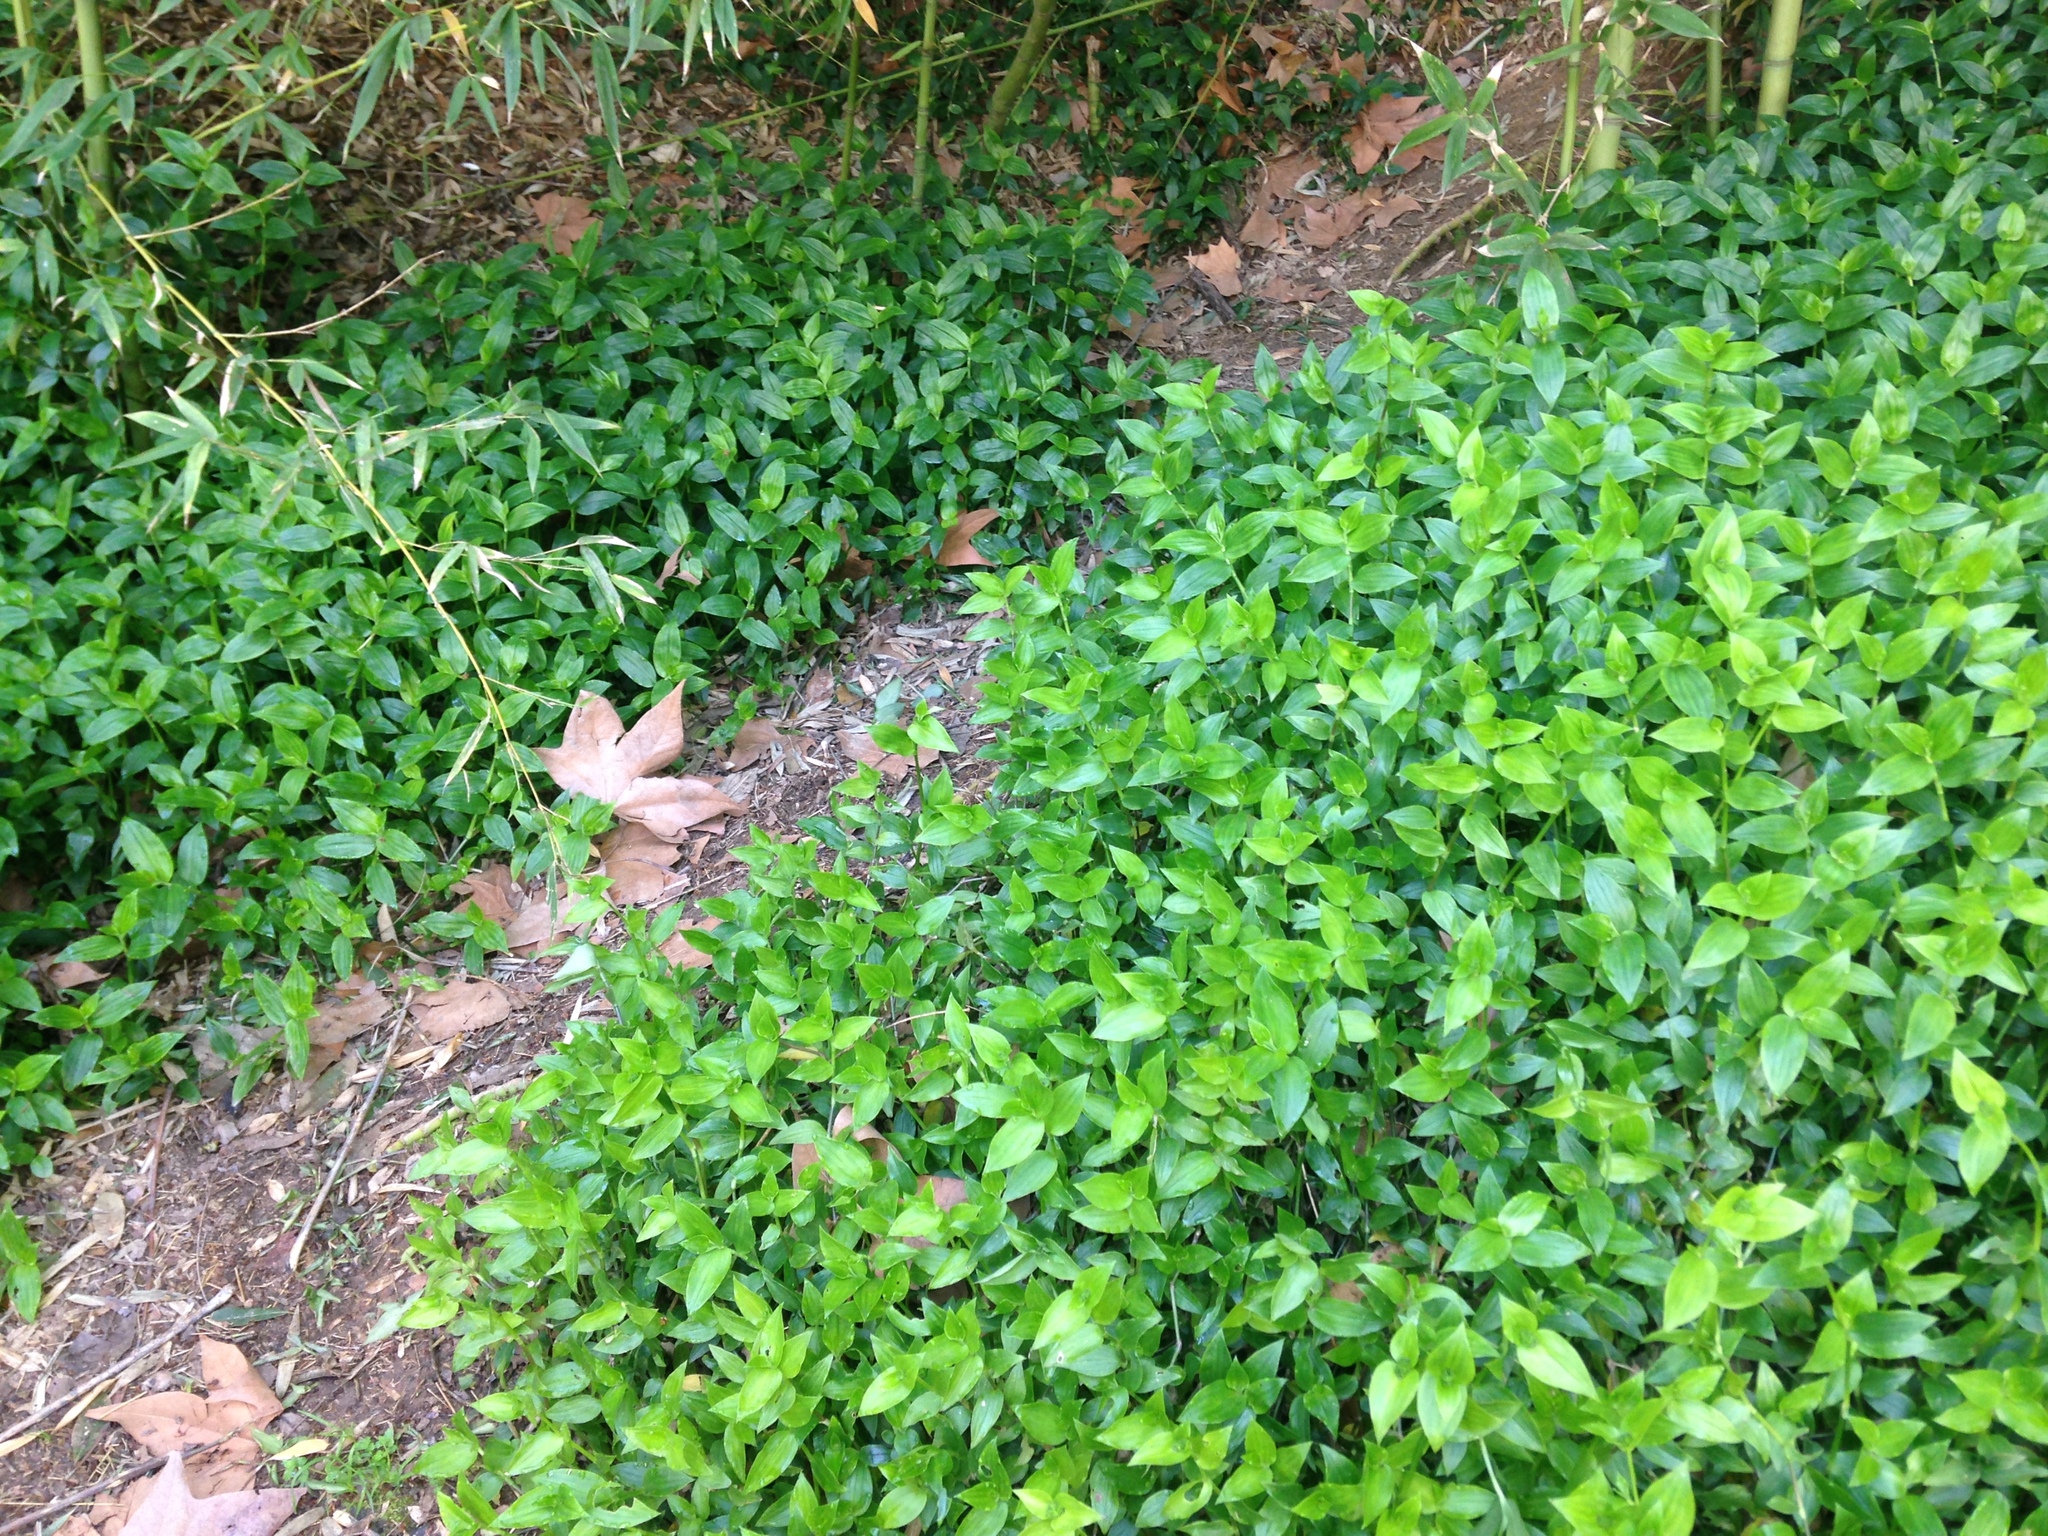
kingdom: Plantae
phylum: Tracheophyta
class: Liliopsida
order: Commelinales
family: Commelinaceae
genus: Tradescantia
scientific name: Tradescantia fluminensis
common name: Wandering-jew
